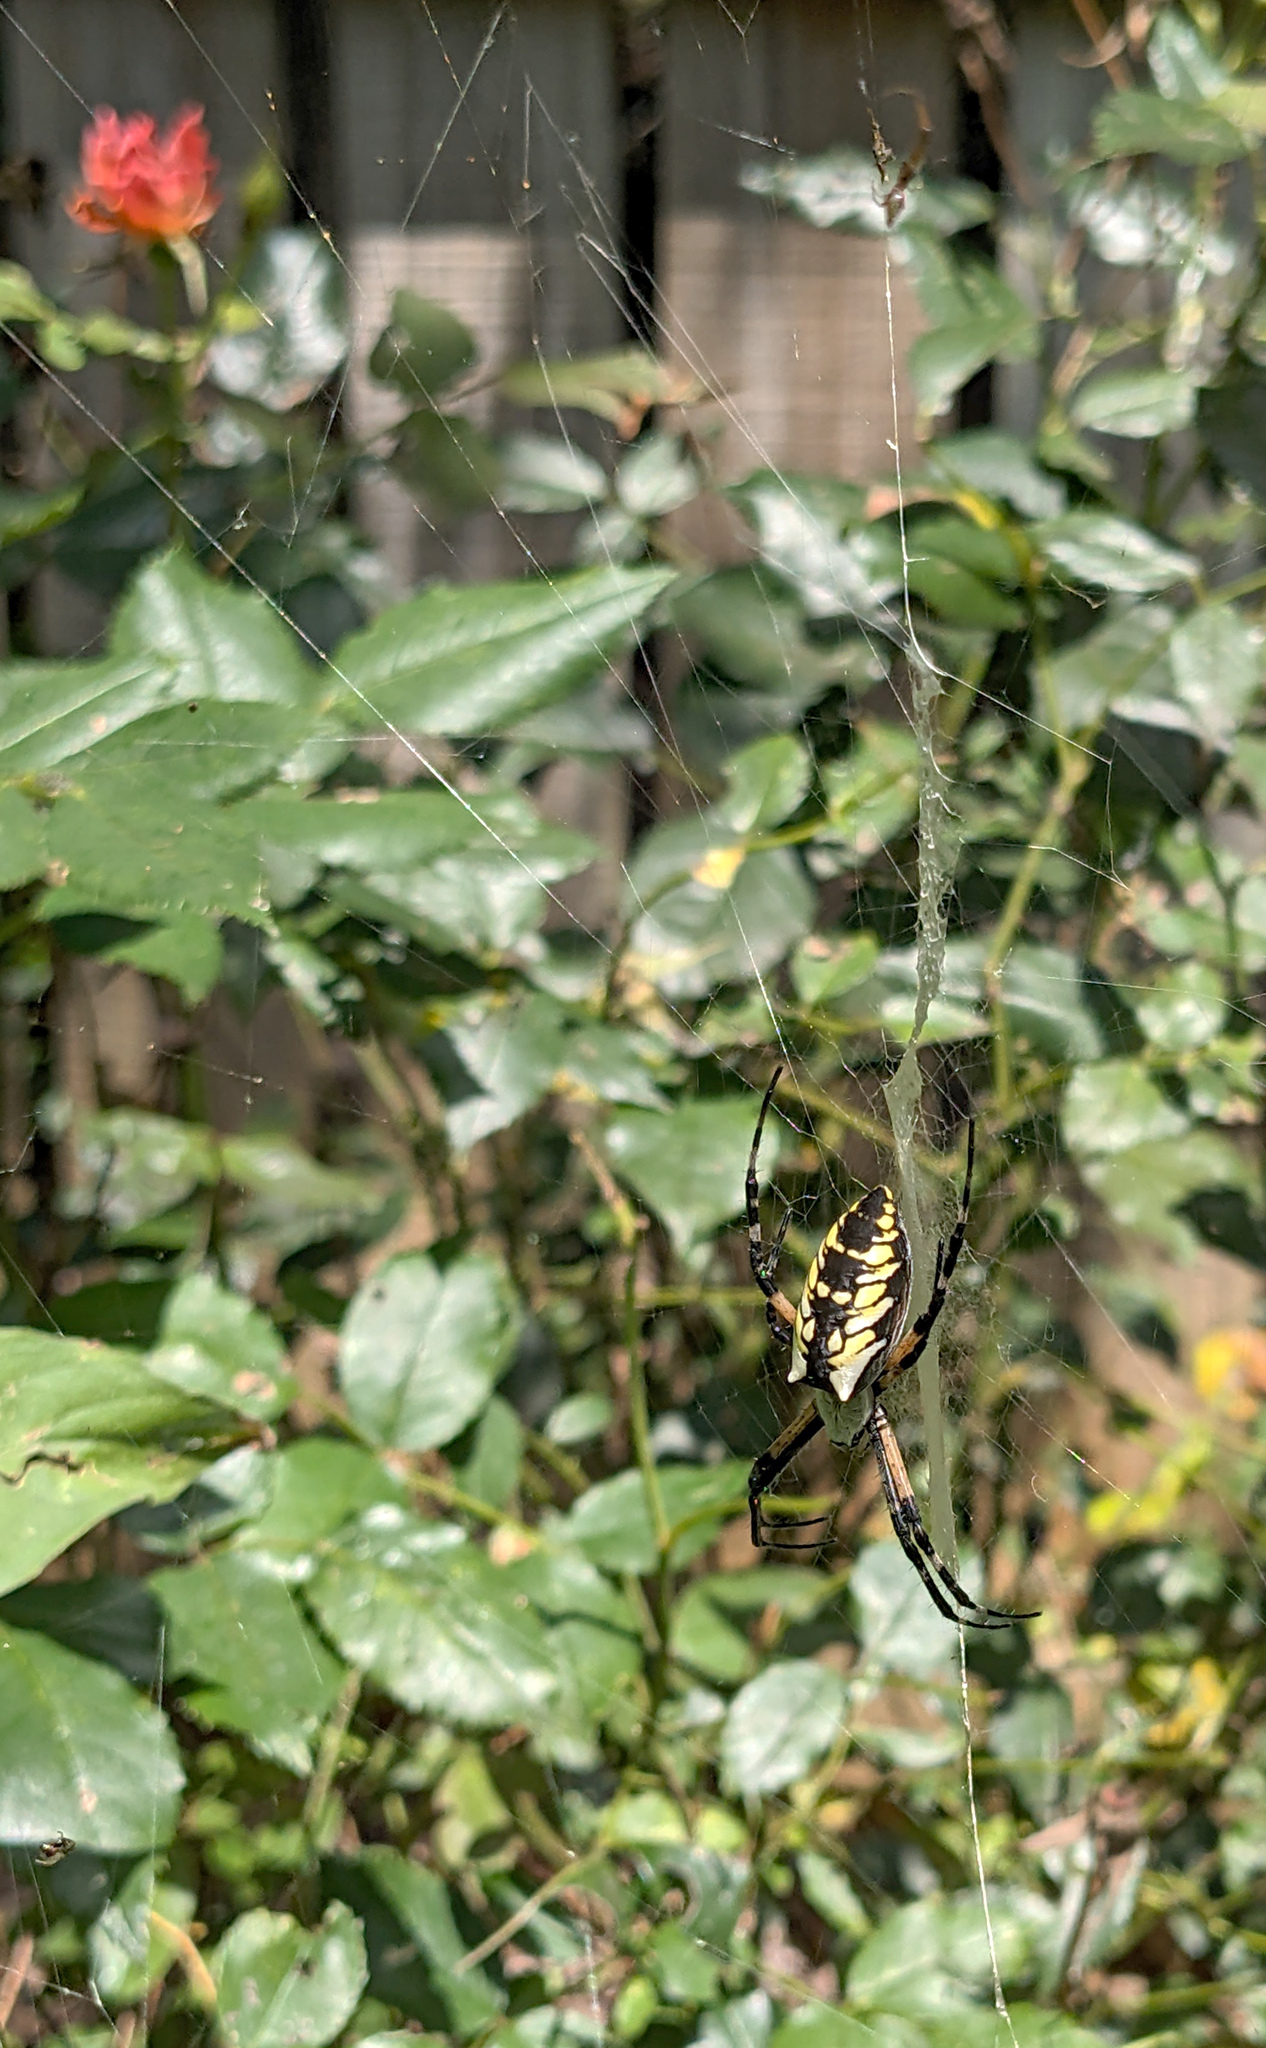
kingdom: Animalia
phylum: Arthropoda
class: Arachnida
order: Araneae
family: Araneidae
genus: Argiope
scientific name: Argiope aurantia
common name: Orb weavers
